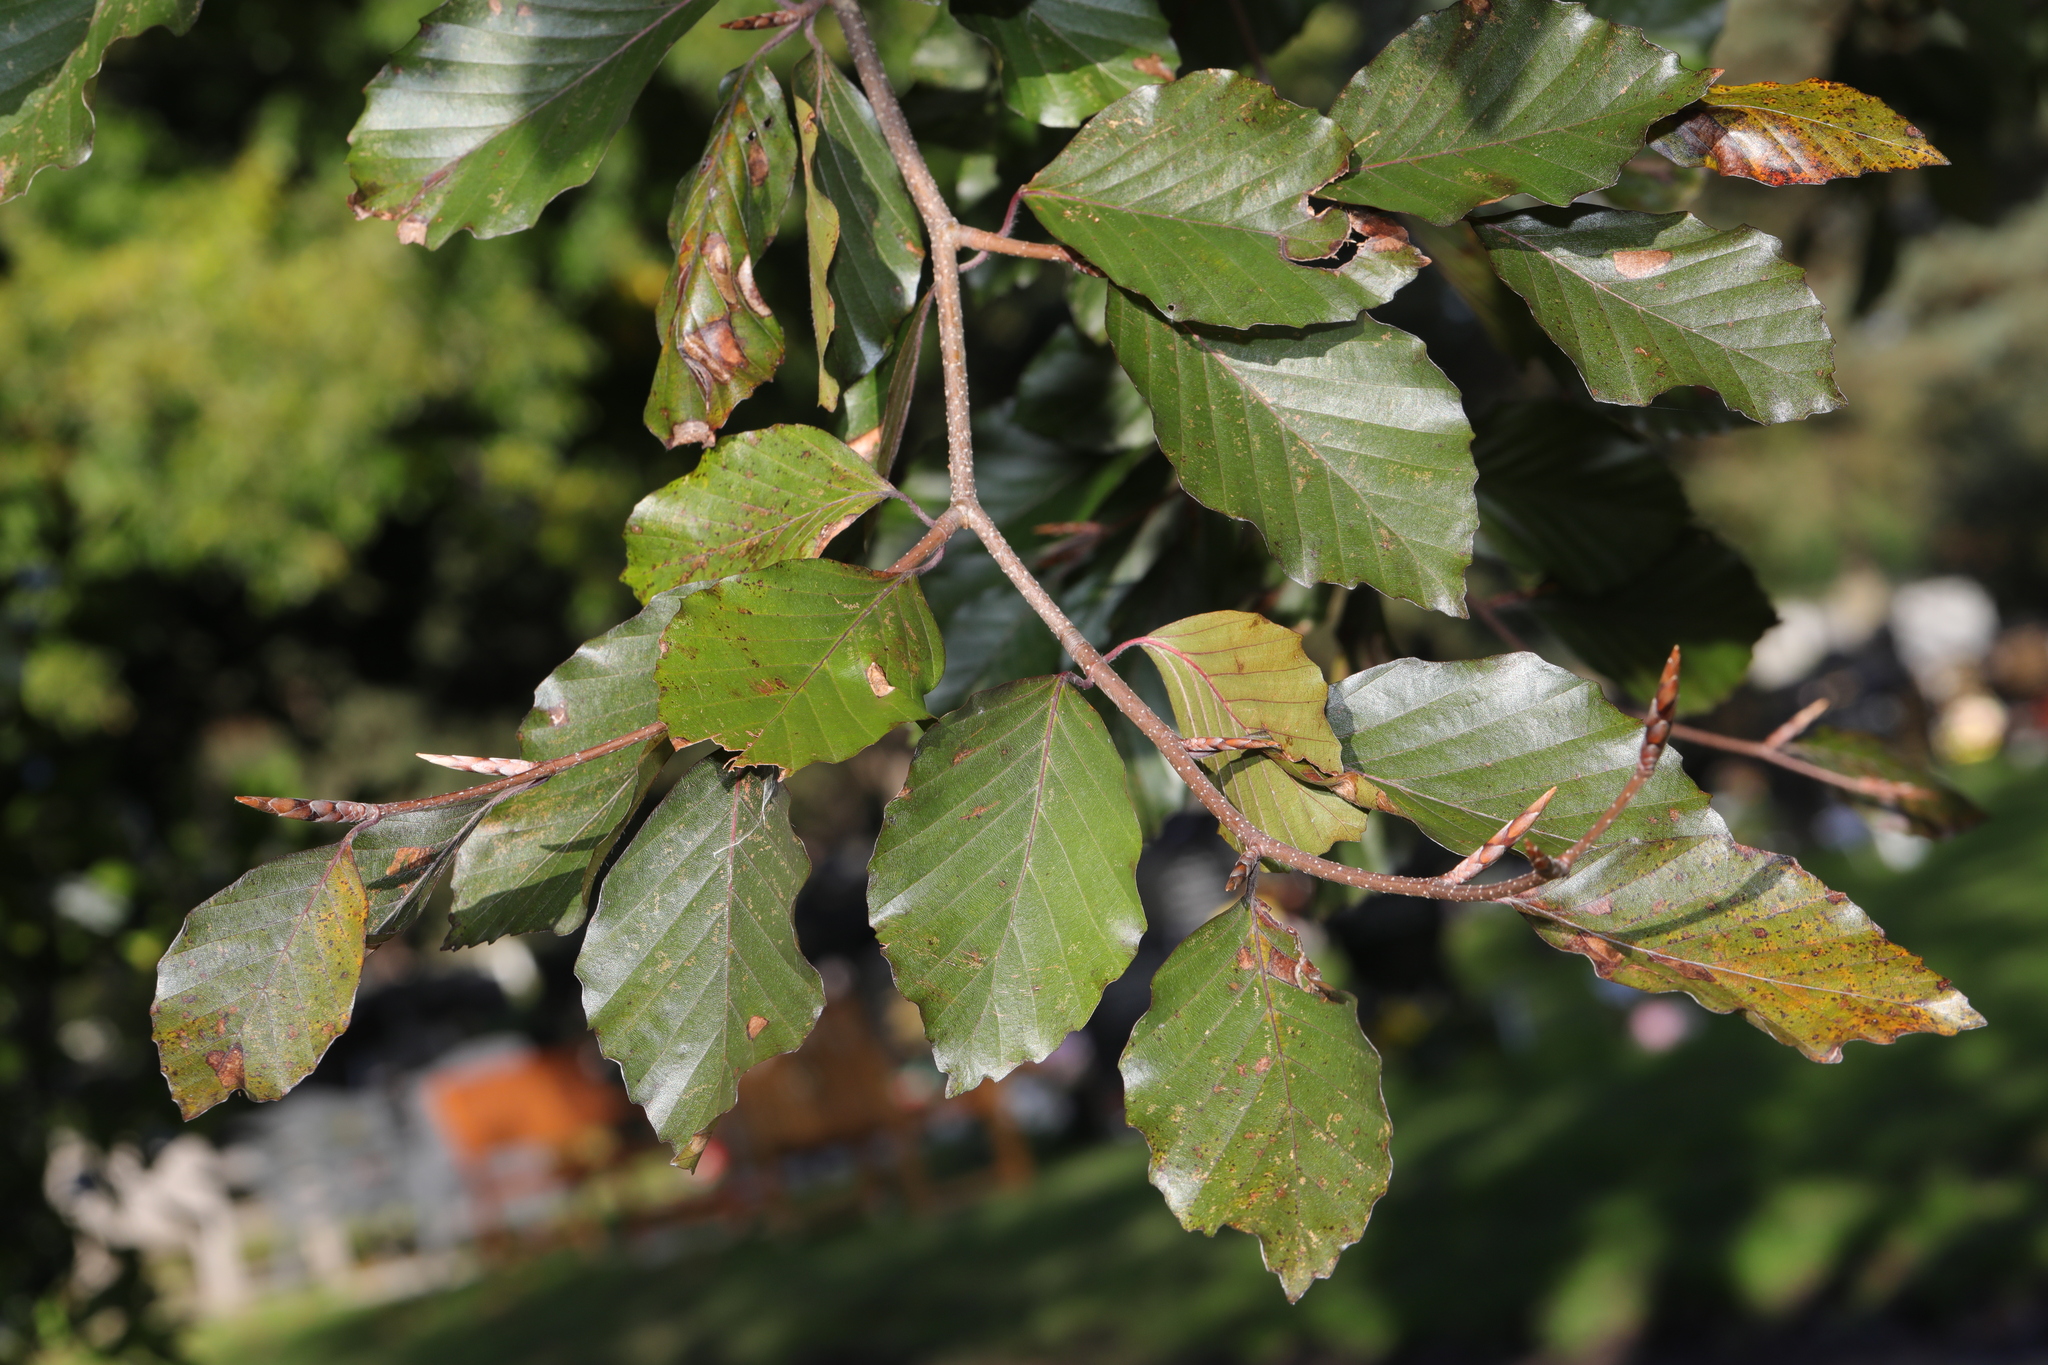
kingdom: Plantae
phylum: Tracheophyta
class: Magnoliopsida
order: Fagales
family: Fagaceae
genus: Fagus
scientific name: Fagus sylvatica
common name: Beech
